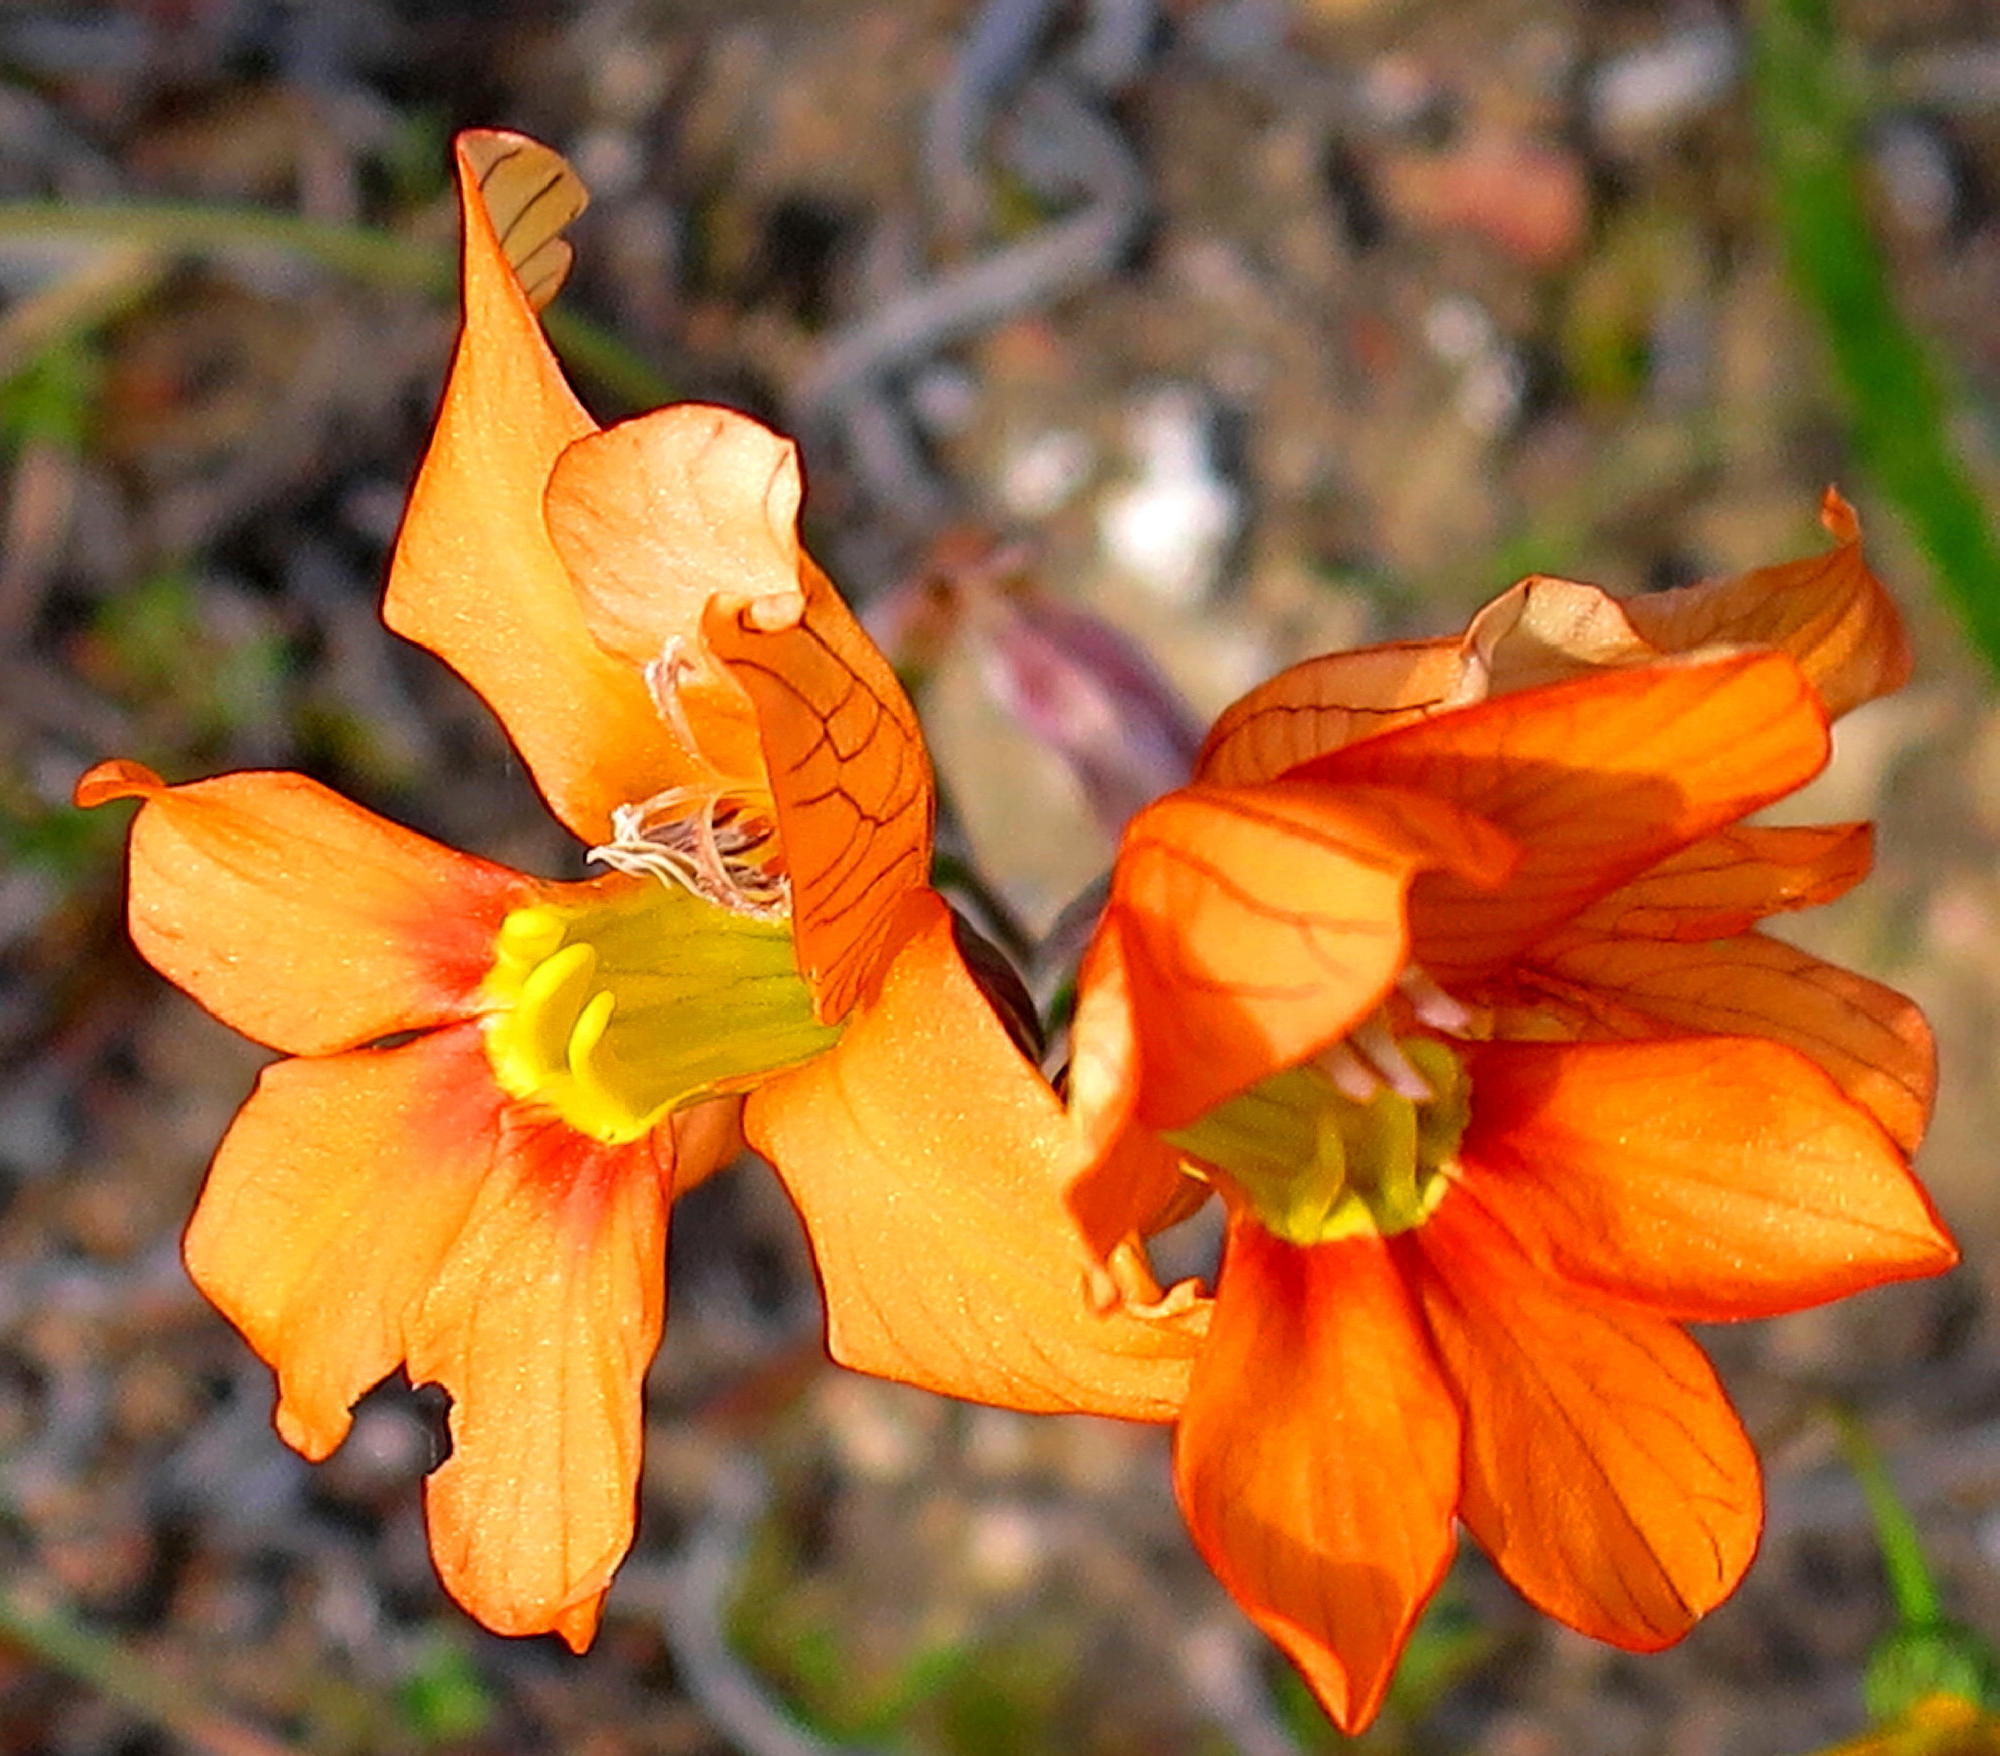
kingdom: Plantae
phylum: Tracheophyta
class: Liliopsida
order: Asparagales
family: Iridaceae
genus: Tritonia
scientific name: Tritonia securigera
